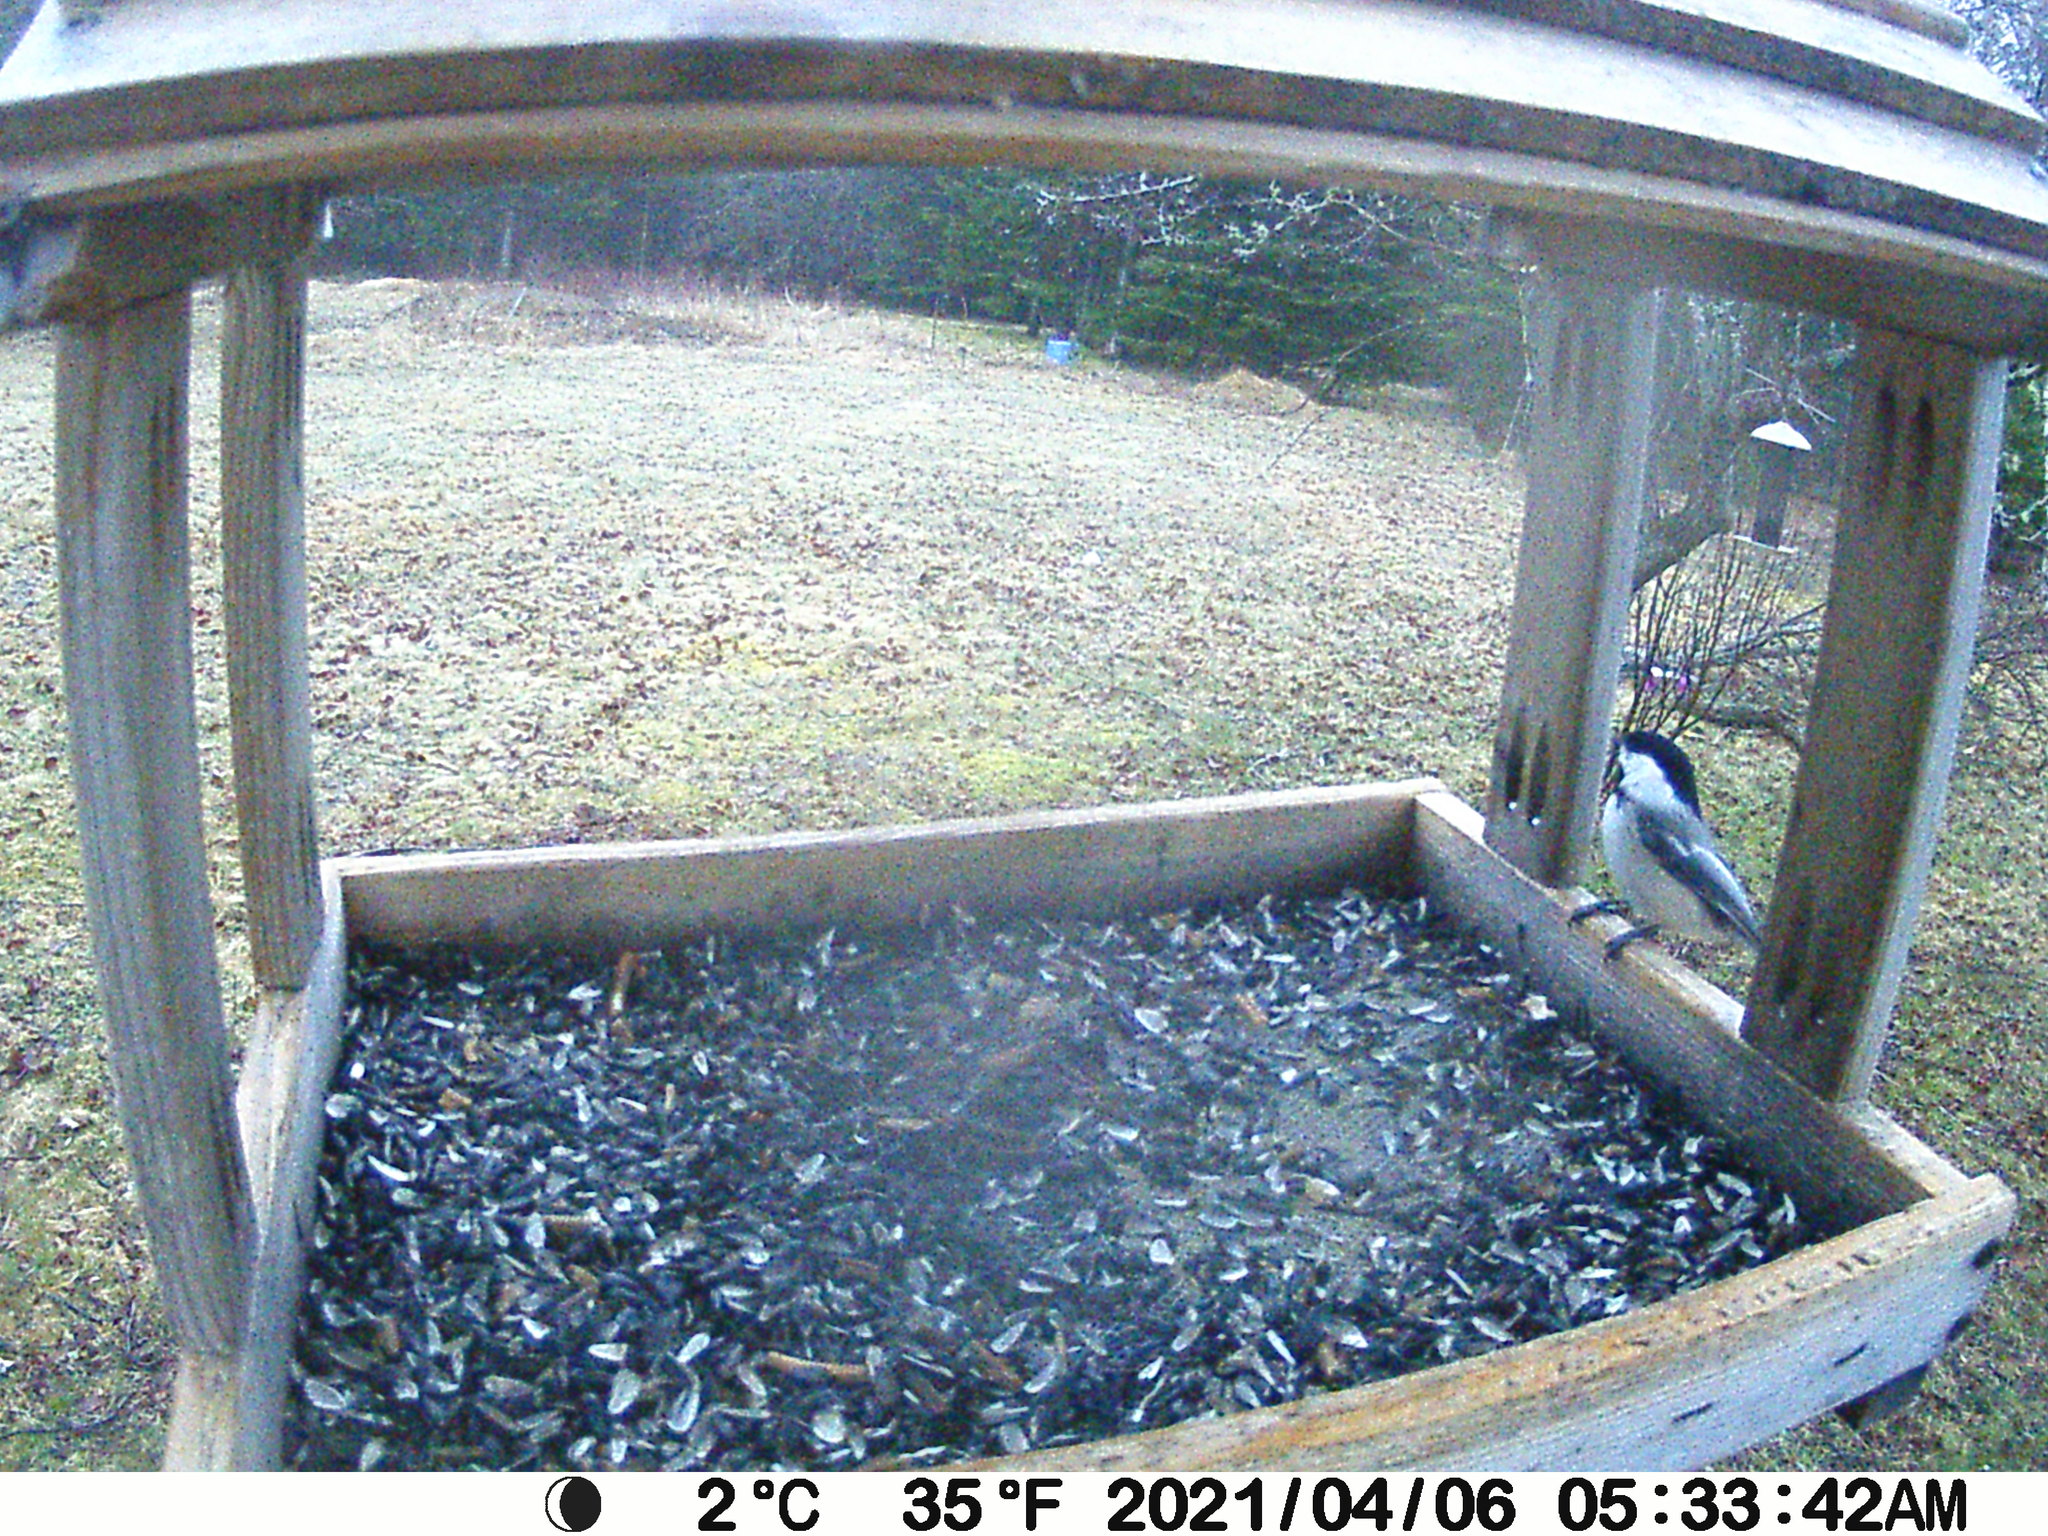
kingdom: Animalia
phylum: Chordata
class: Aves
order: Passeriformes
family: Paridae
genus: Poecile
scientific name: Poecile atricapillus
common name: Black-capped chickadee
